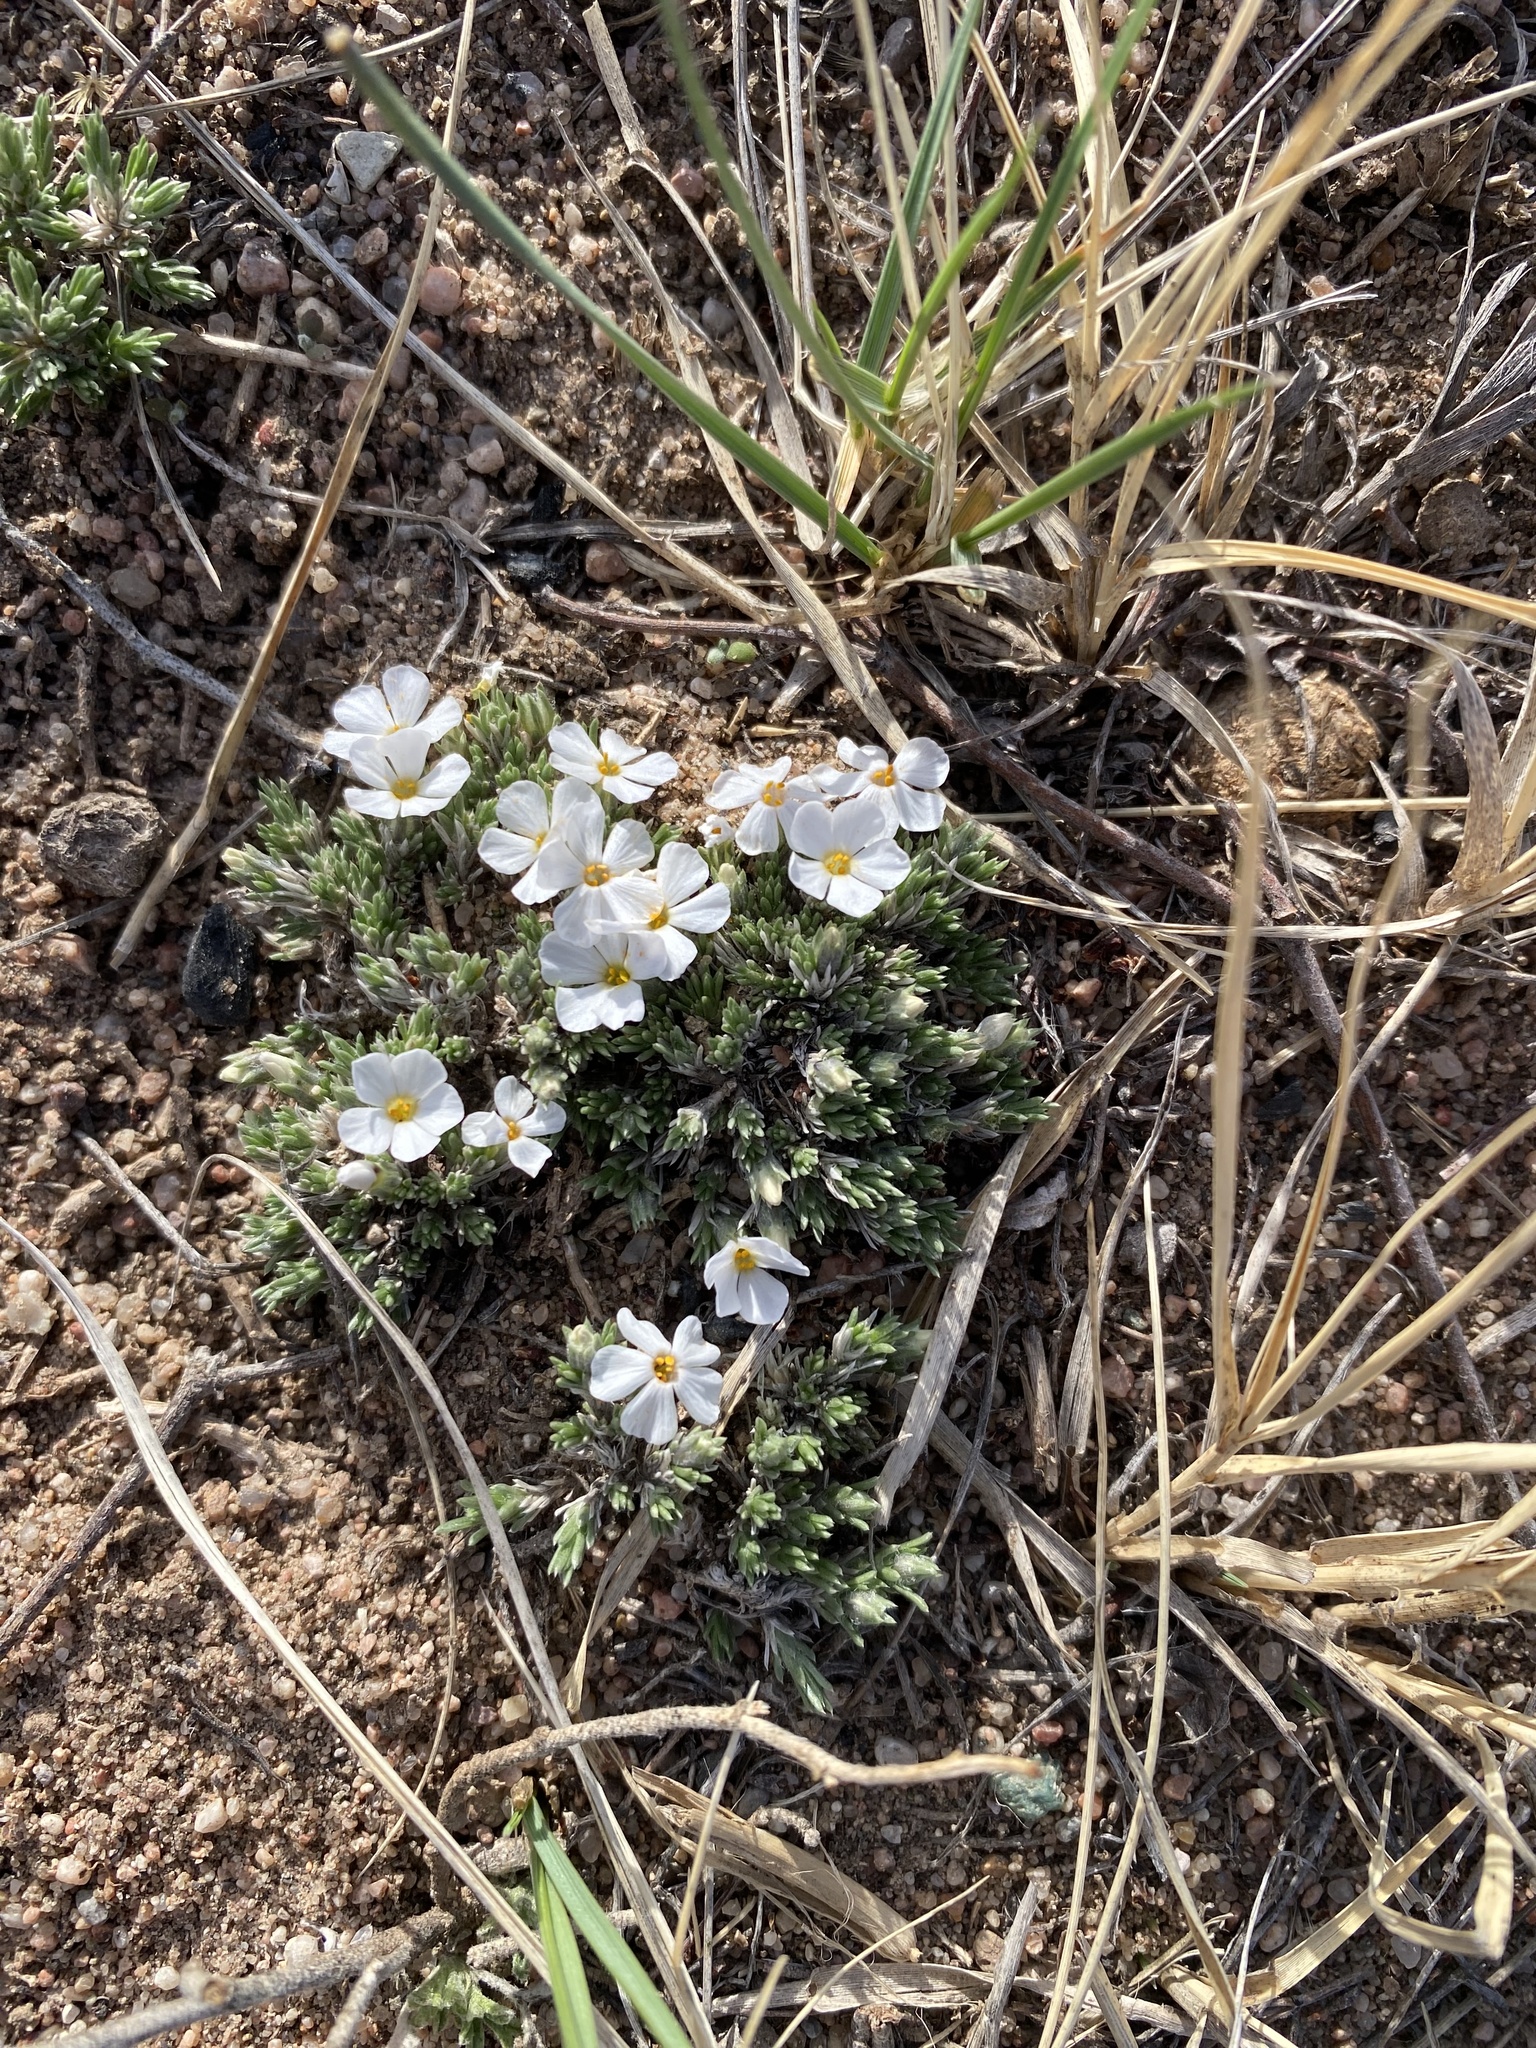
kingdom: Plantae
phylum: Tracheophyta
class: Magnoliopsida
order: Ericales
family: Polemoniaceae
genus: Phlox
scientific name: Phlox hoodii
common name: Moss phlox
